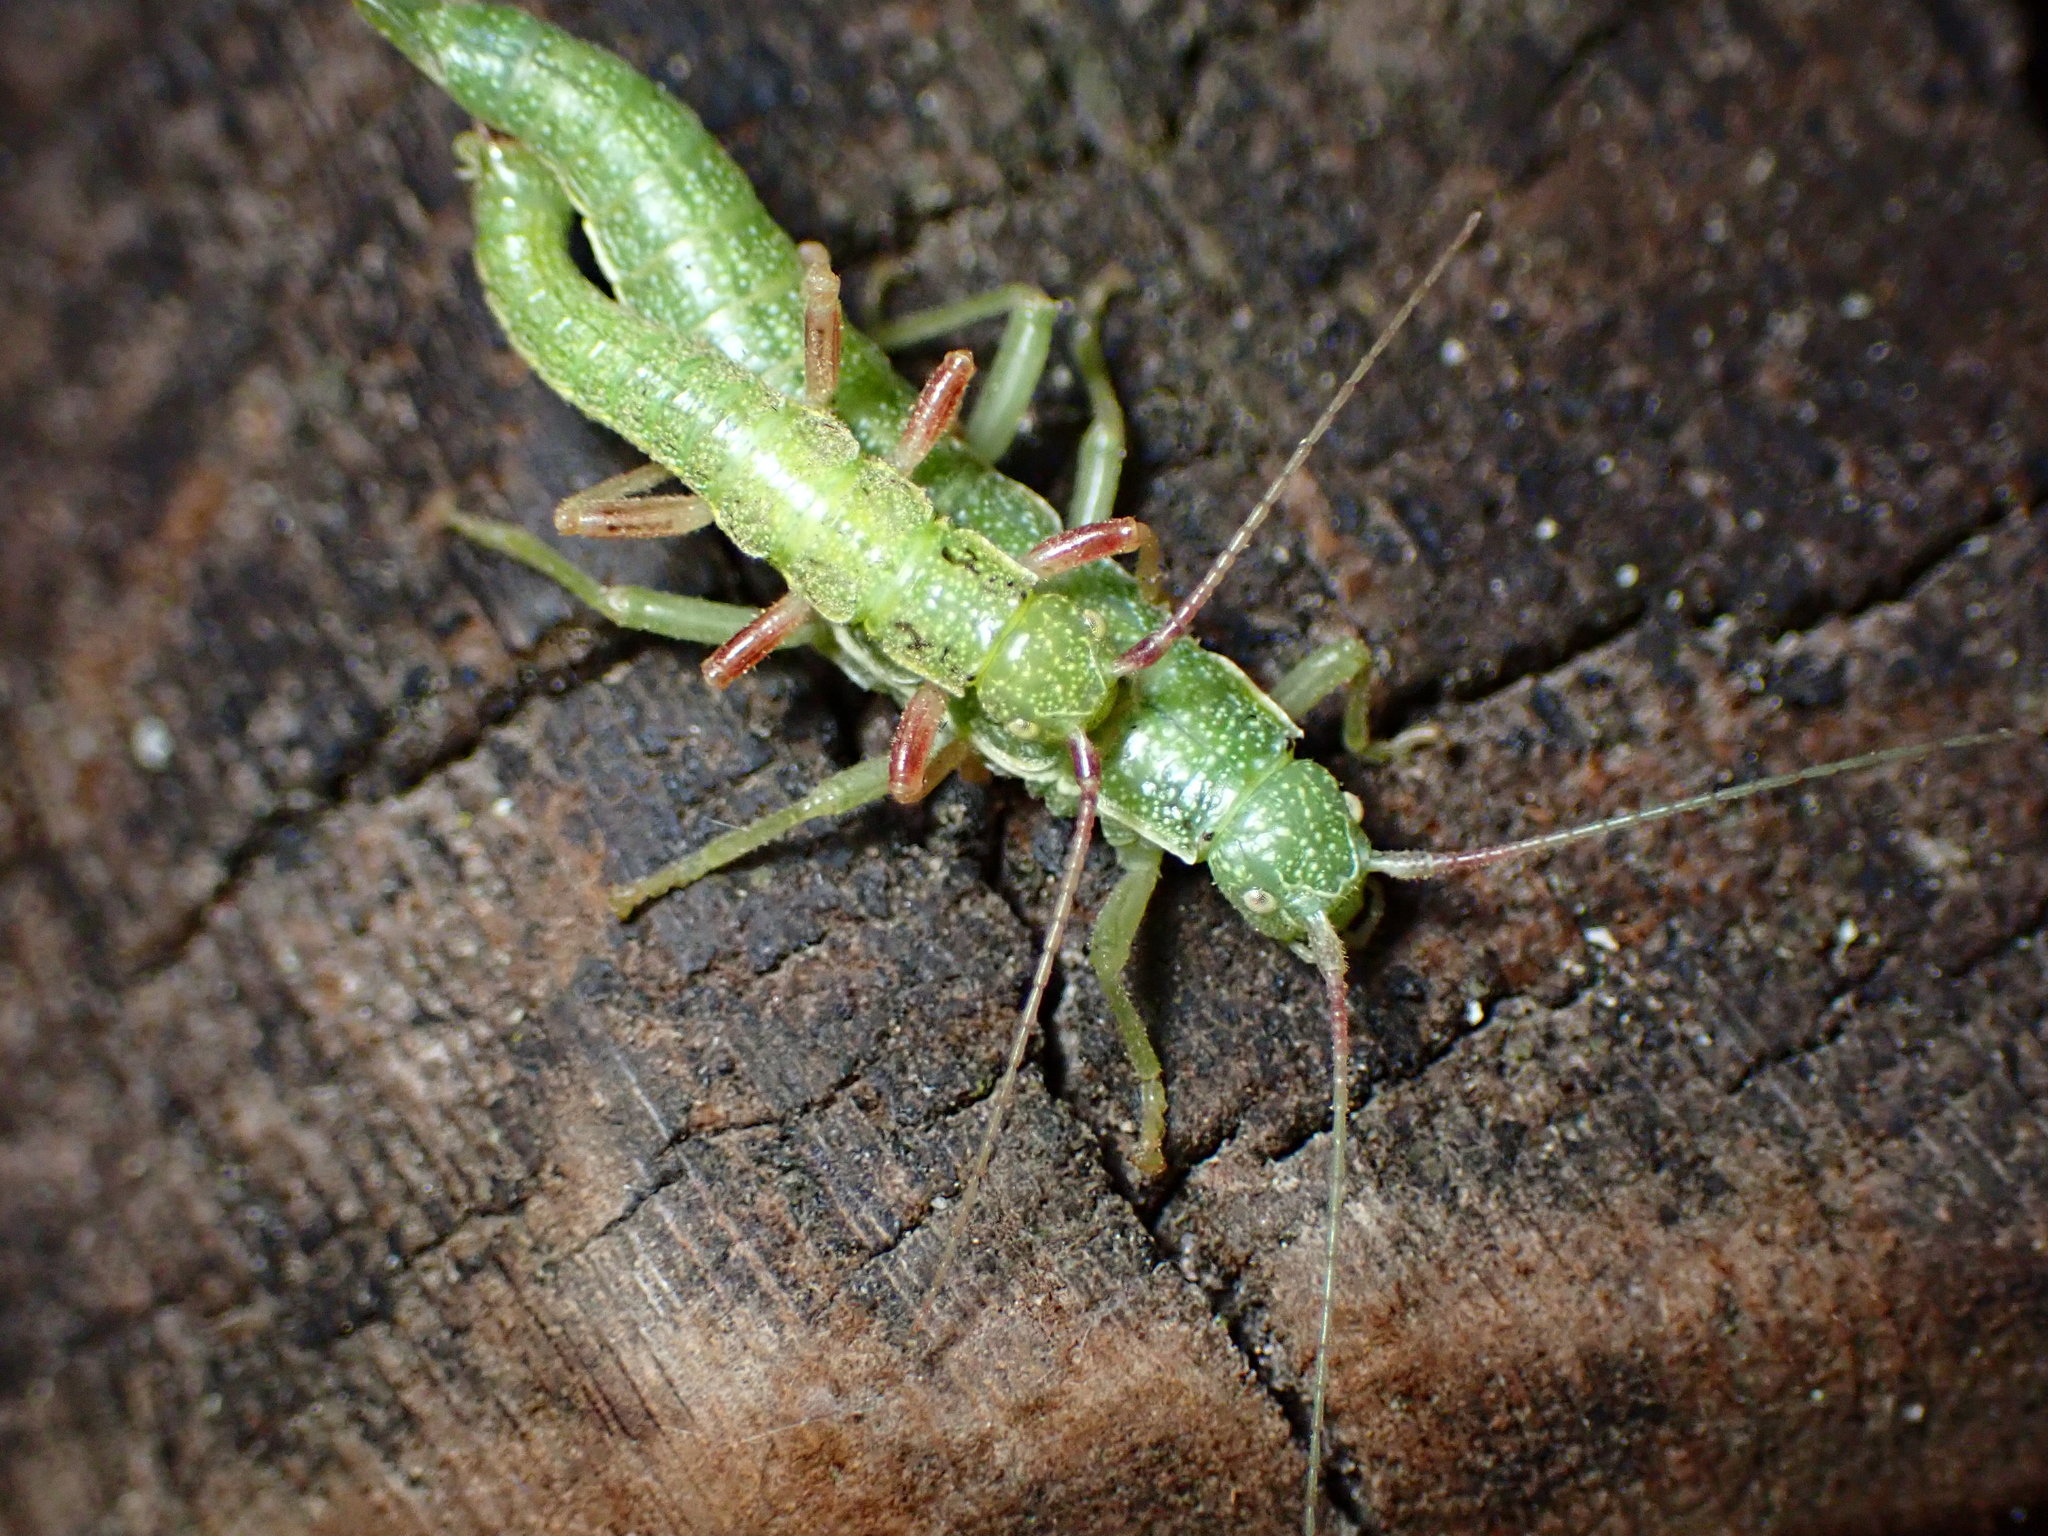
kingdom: Animalia
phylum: Arthropoda
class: Insecta
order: Phasmida
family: Timematidae
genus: Timema
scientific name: Timema californicum
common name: California timema
